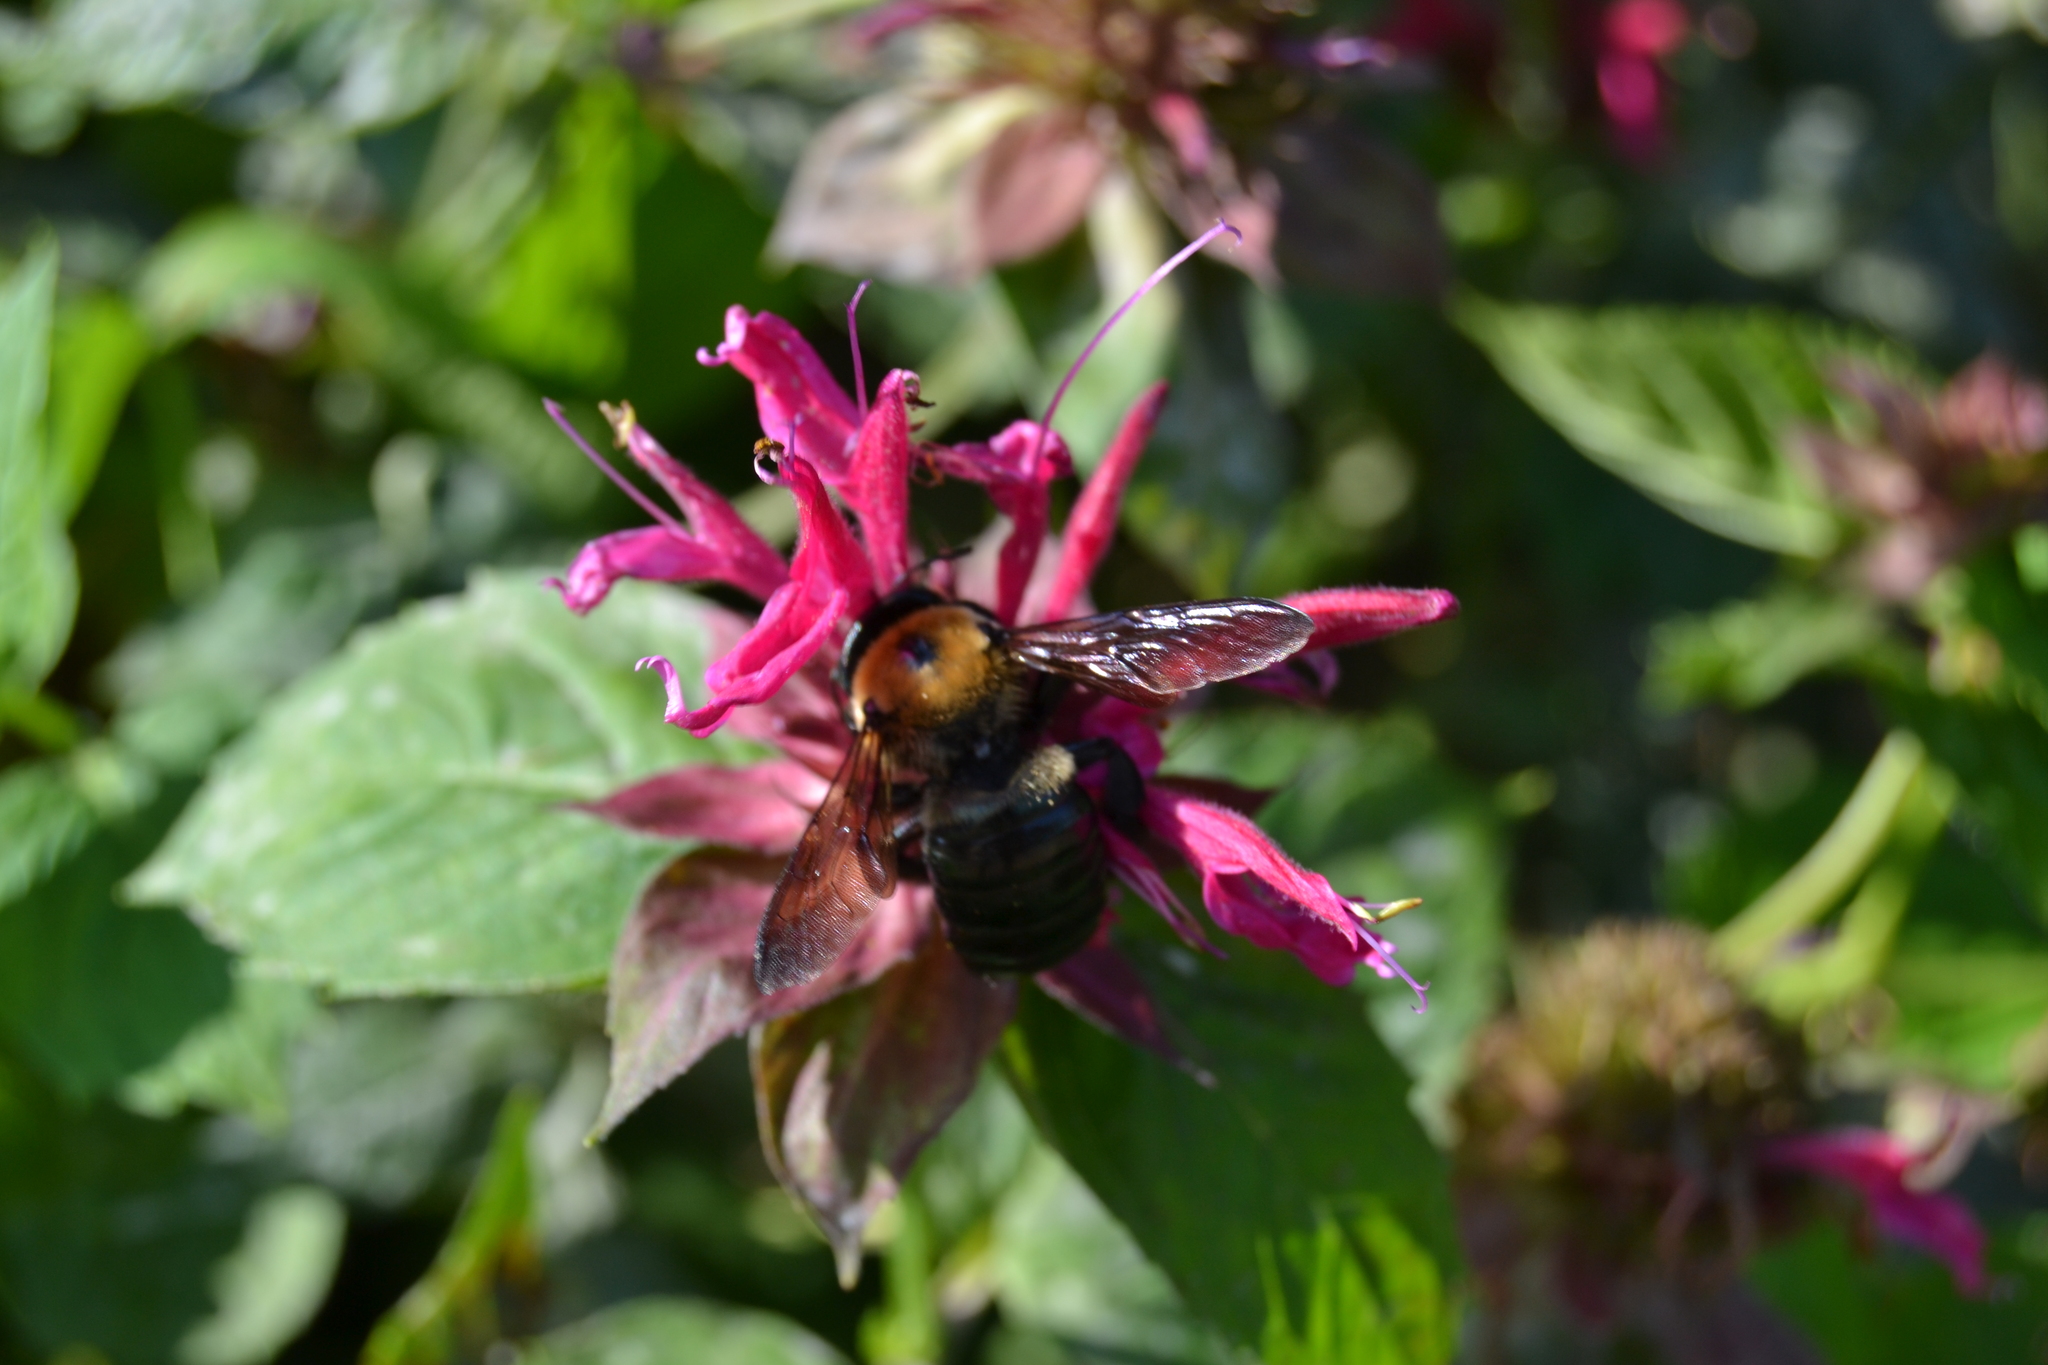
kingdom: Animalia
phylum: Arthropoda
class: Insecta
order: Hymenoptera
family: Apidae
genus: Xylocopa
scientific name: Xylocopa virginica
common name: Carpenter bee
